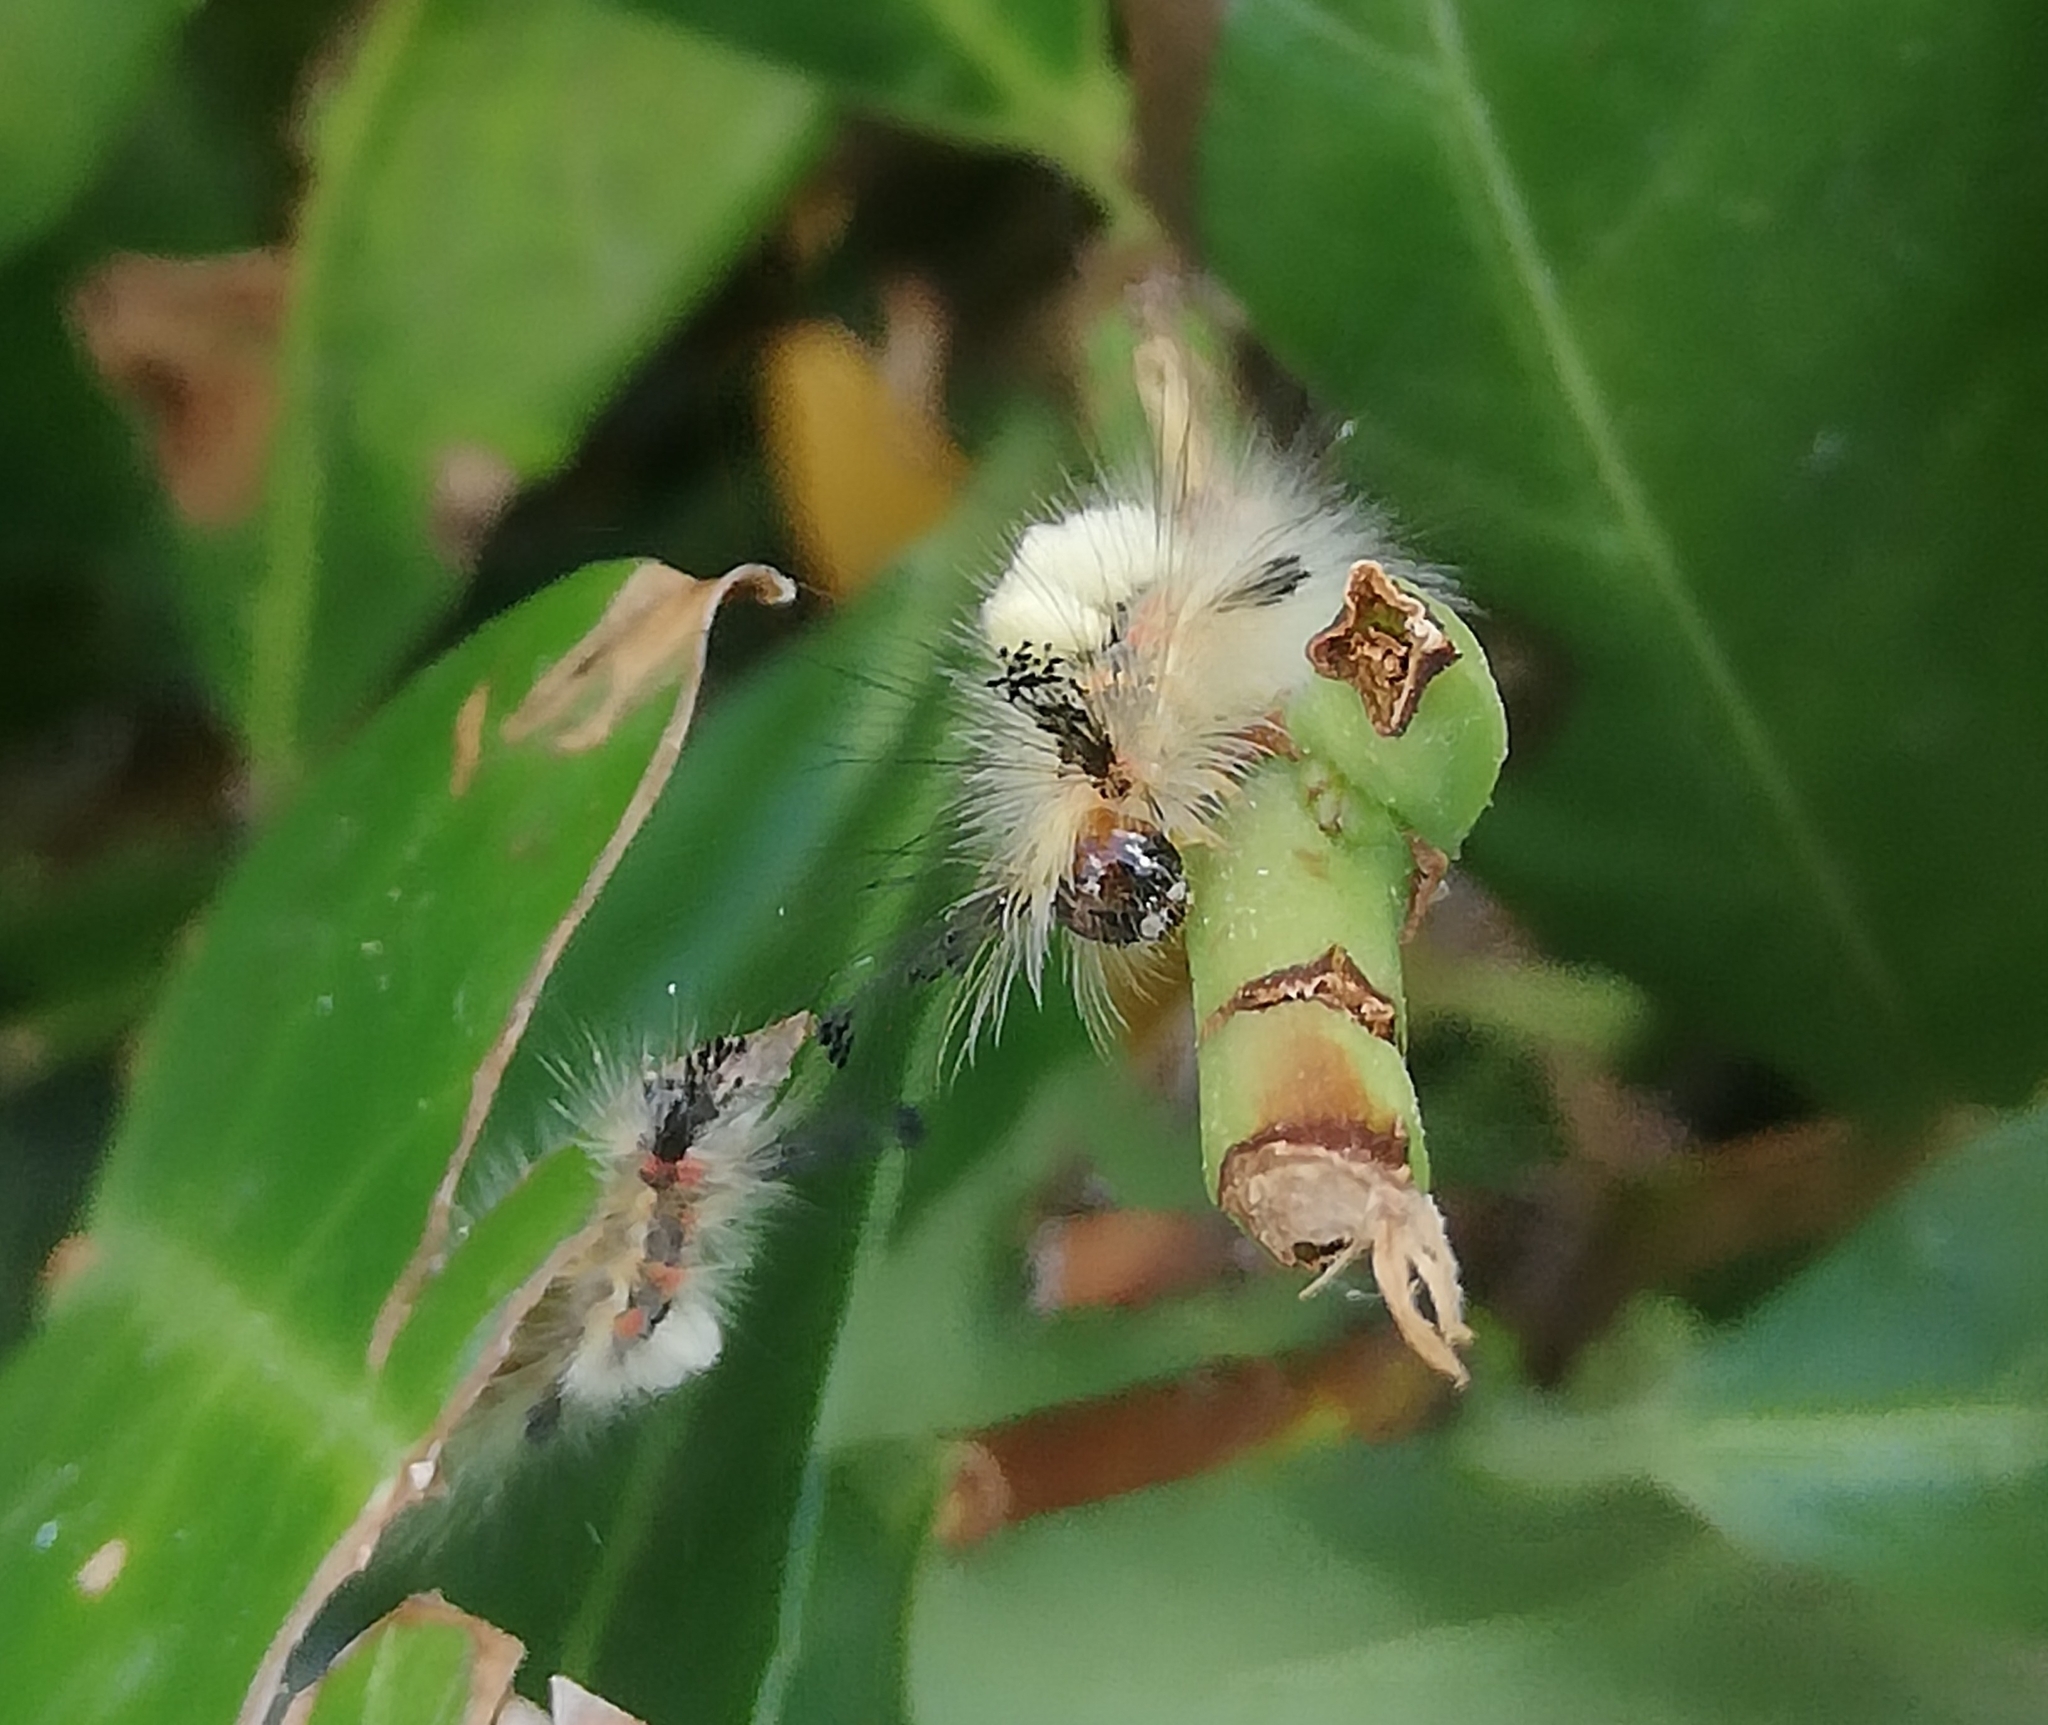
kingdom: Animalia
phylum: Arthropoda
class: Insecta
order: Lepidoptera
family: Erebidae
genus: Orgyia
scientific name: Orgyia antiqua
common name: Vapourer
